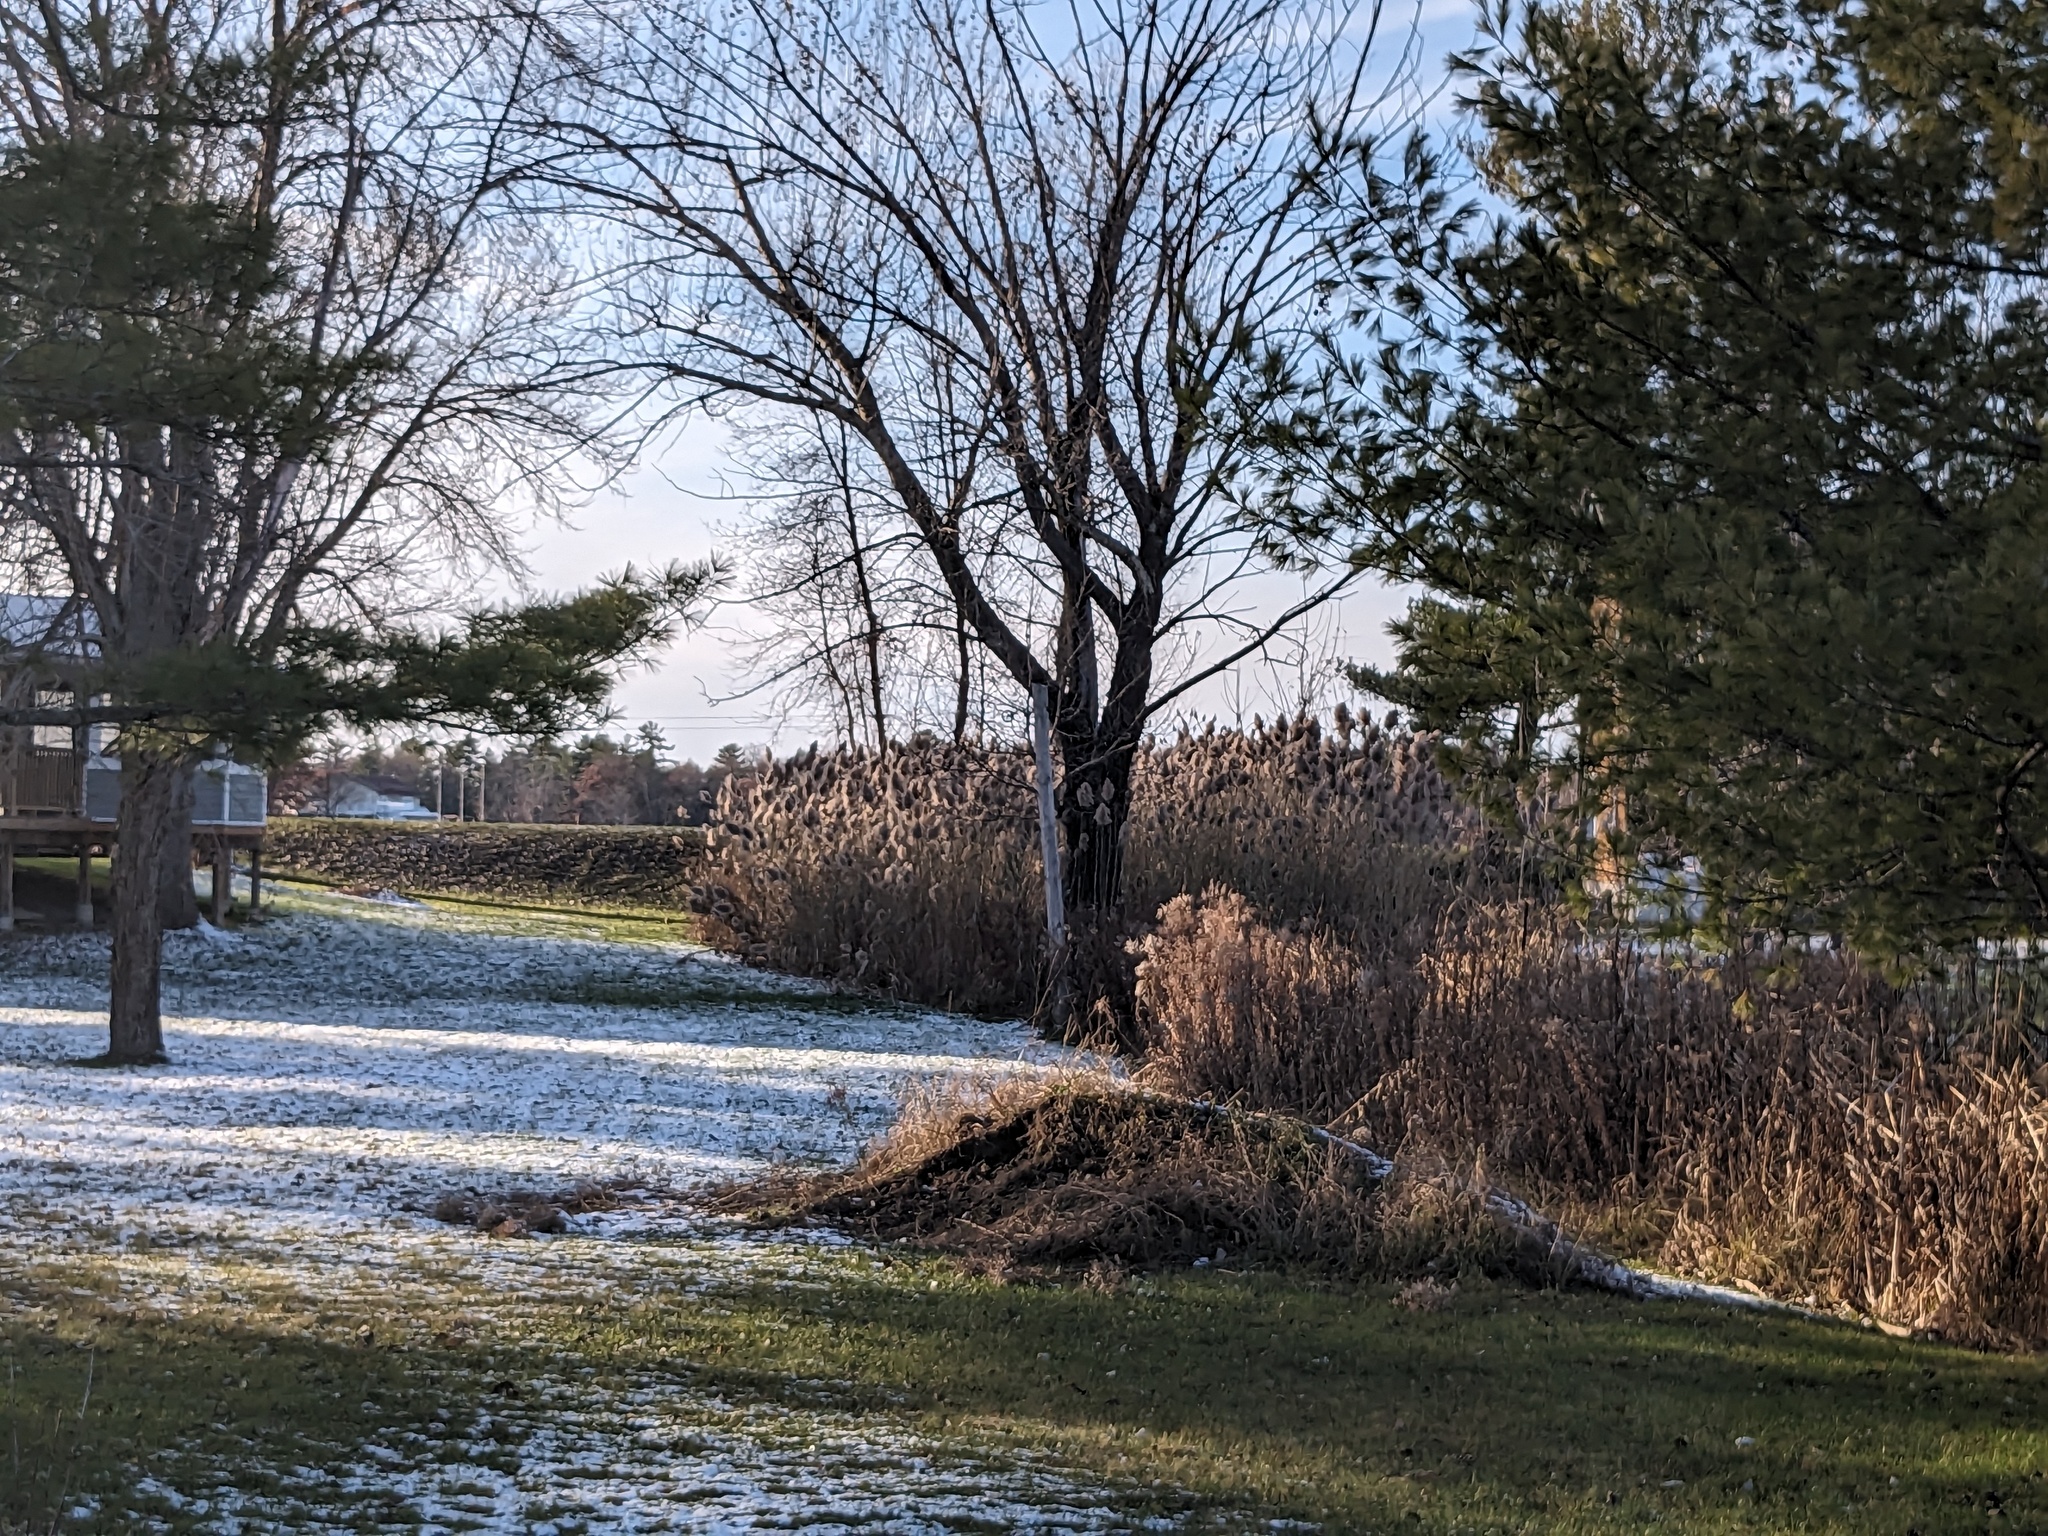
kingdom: Plantae
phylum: Tracheophyta
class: Liliopsida
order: Poales
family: Poaceae
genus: Phragmites
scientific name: Phragmites australis
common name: Common reed
